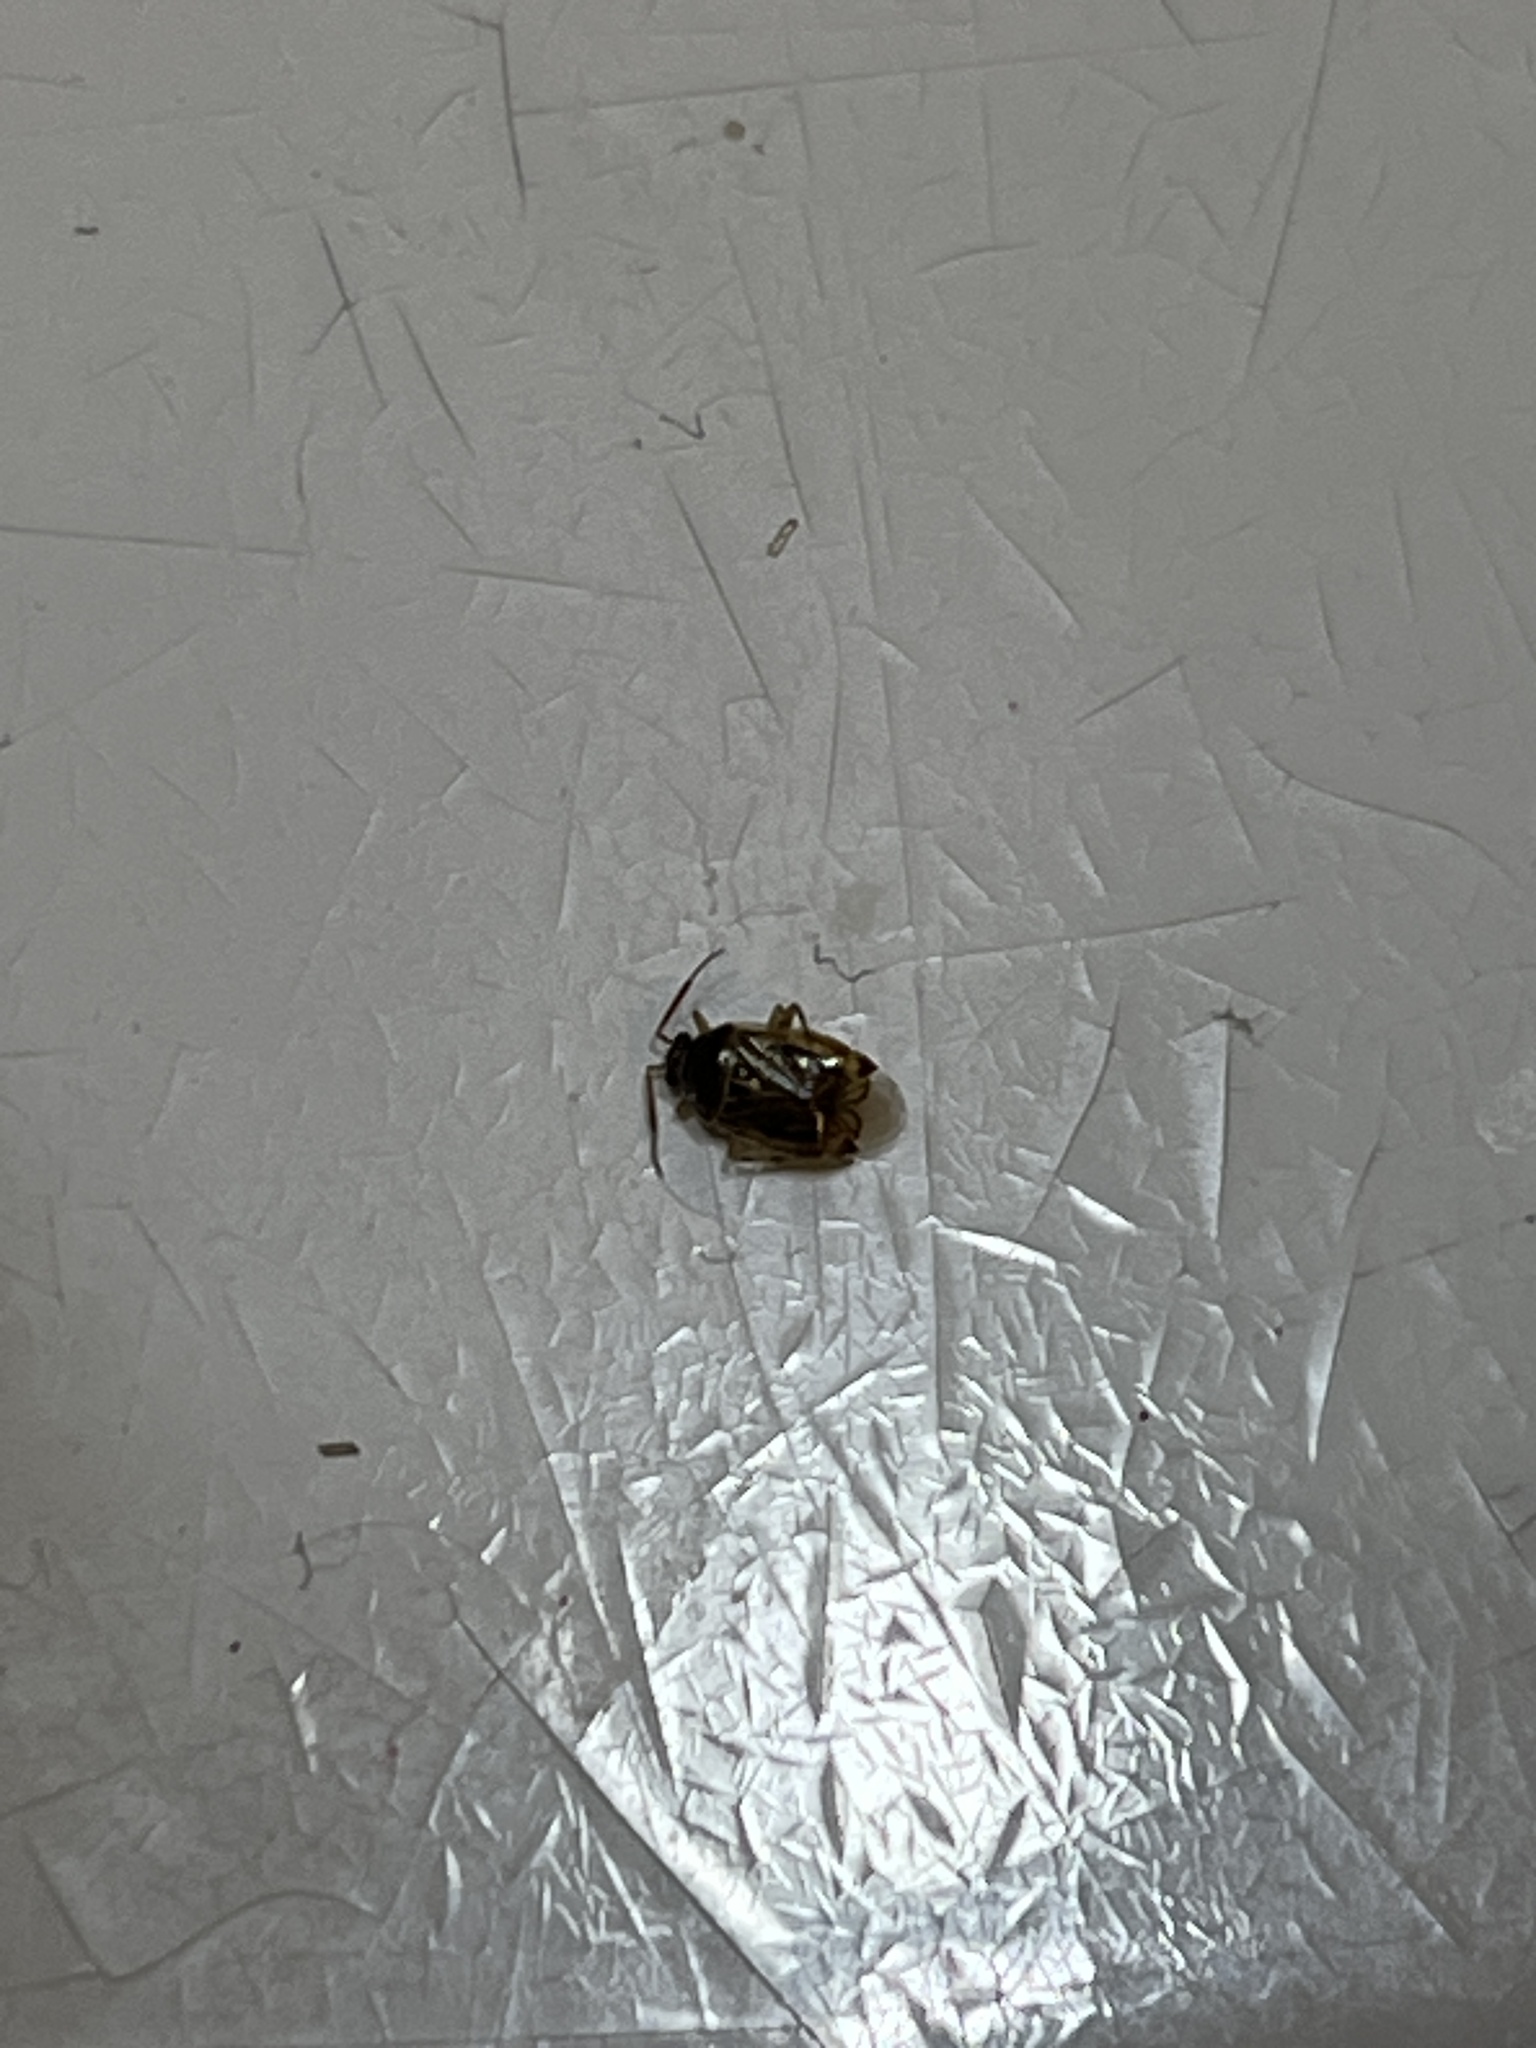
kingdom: Animalia
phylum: Arthropoda
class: Insecta
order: Hemiptera
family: Miridae
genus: Deraeocoris
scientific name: Deraeocoris lutescens
